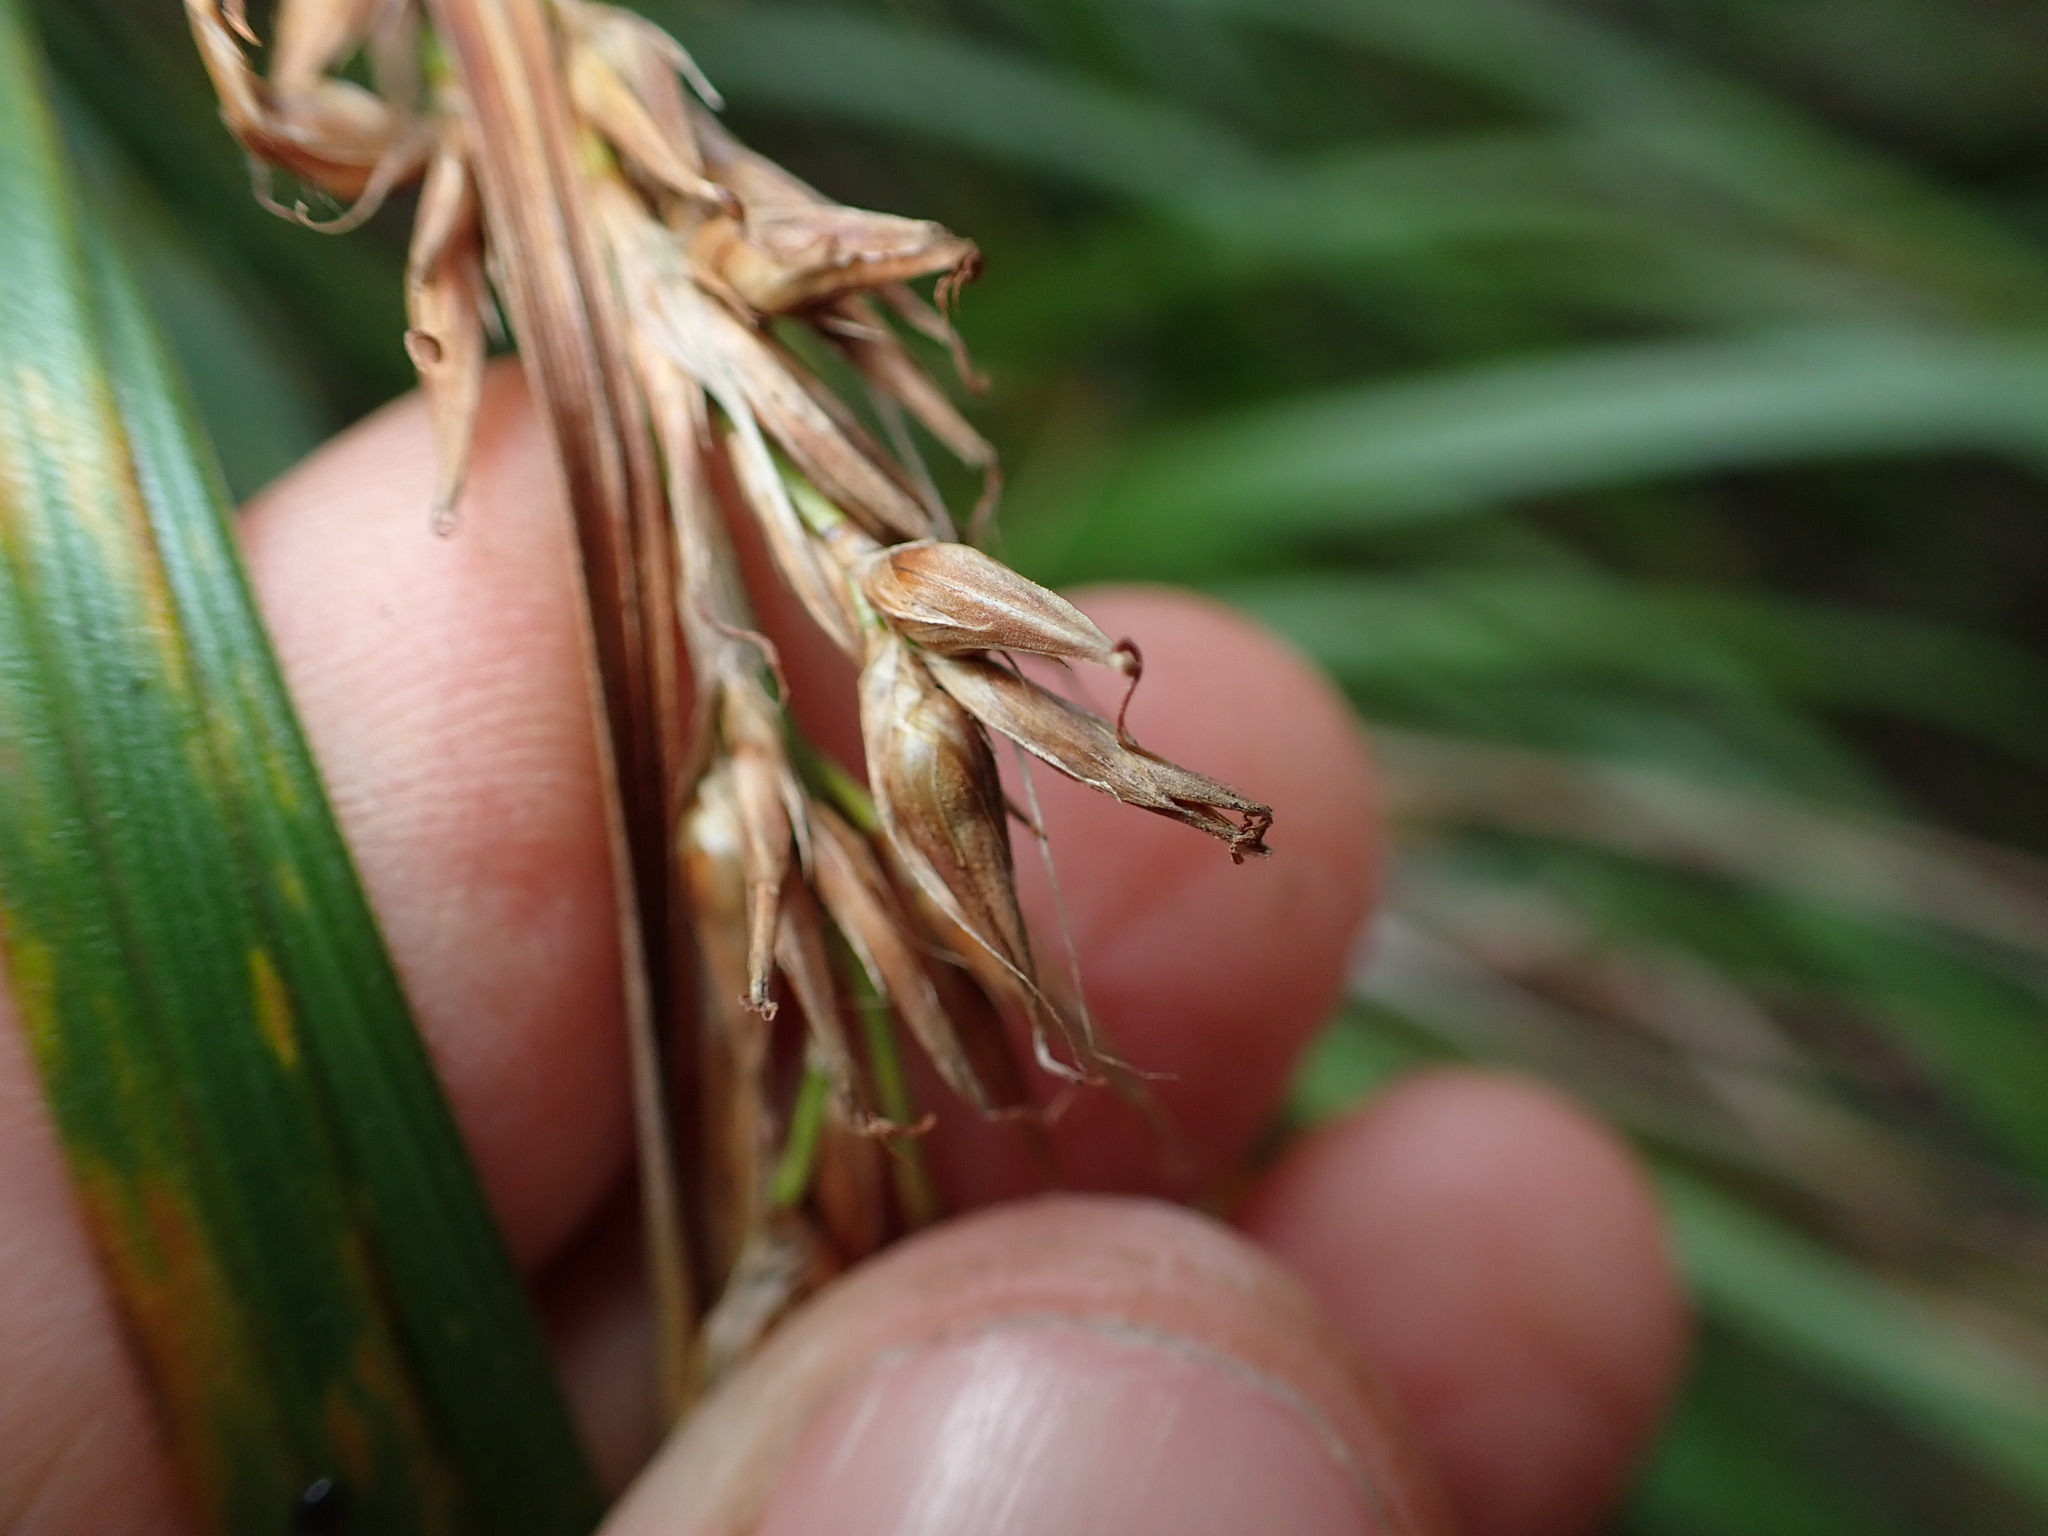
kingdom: Plantae
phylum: Tracheophyta
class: Liliopsida
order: Poales
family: Cyperaceae
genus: Morelotia
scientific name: Morelotia affinis
